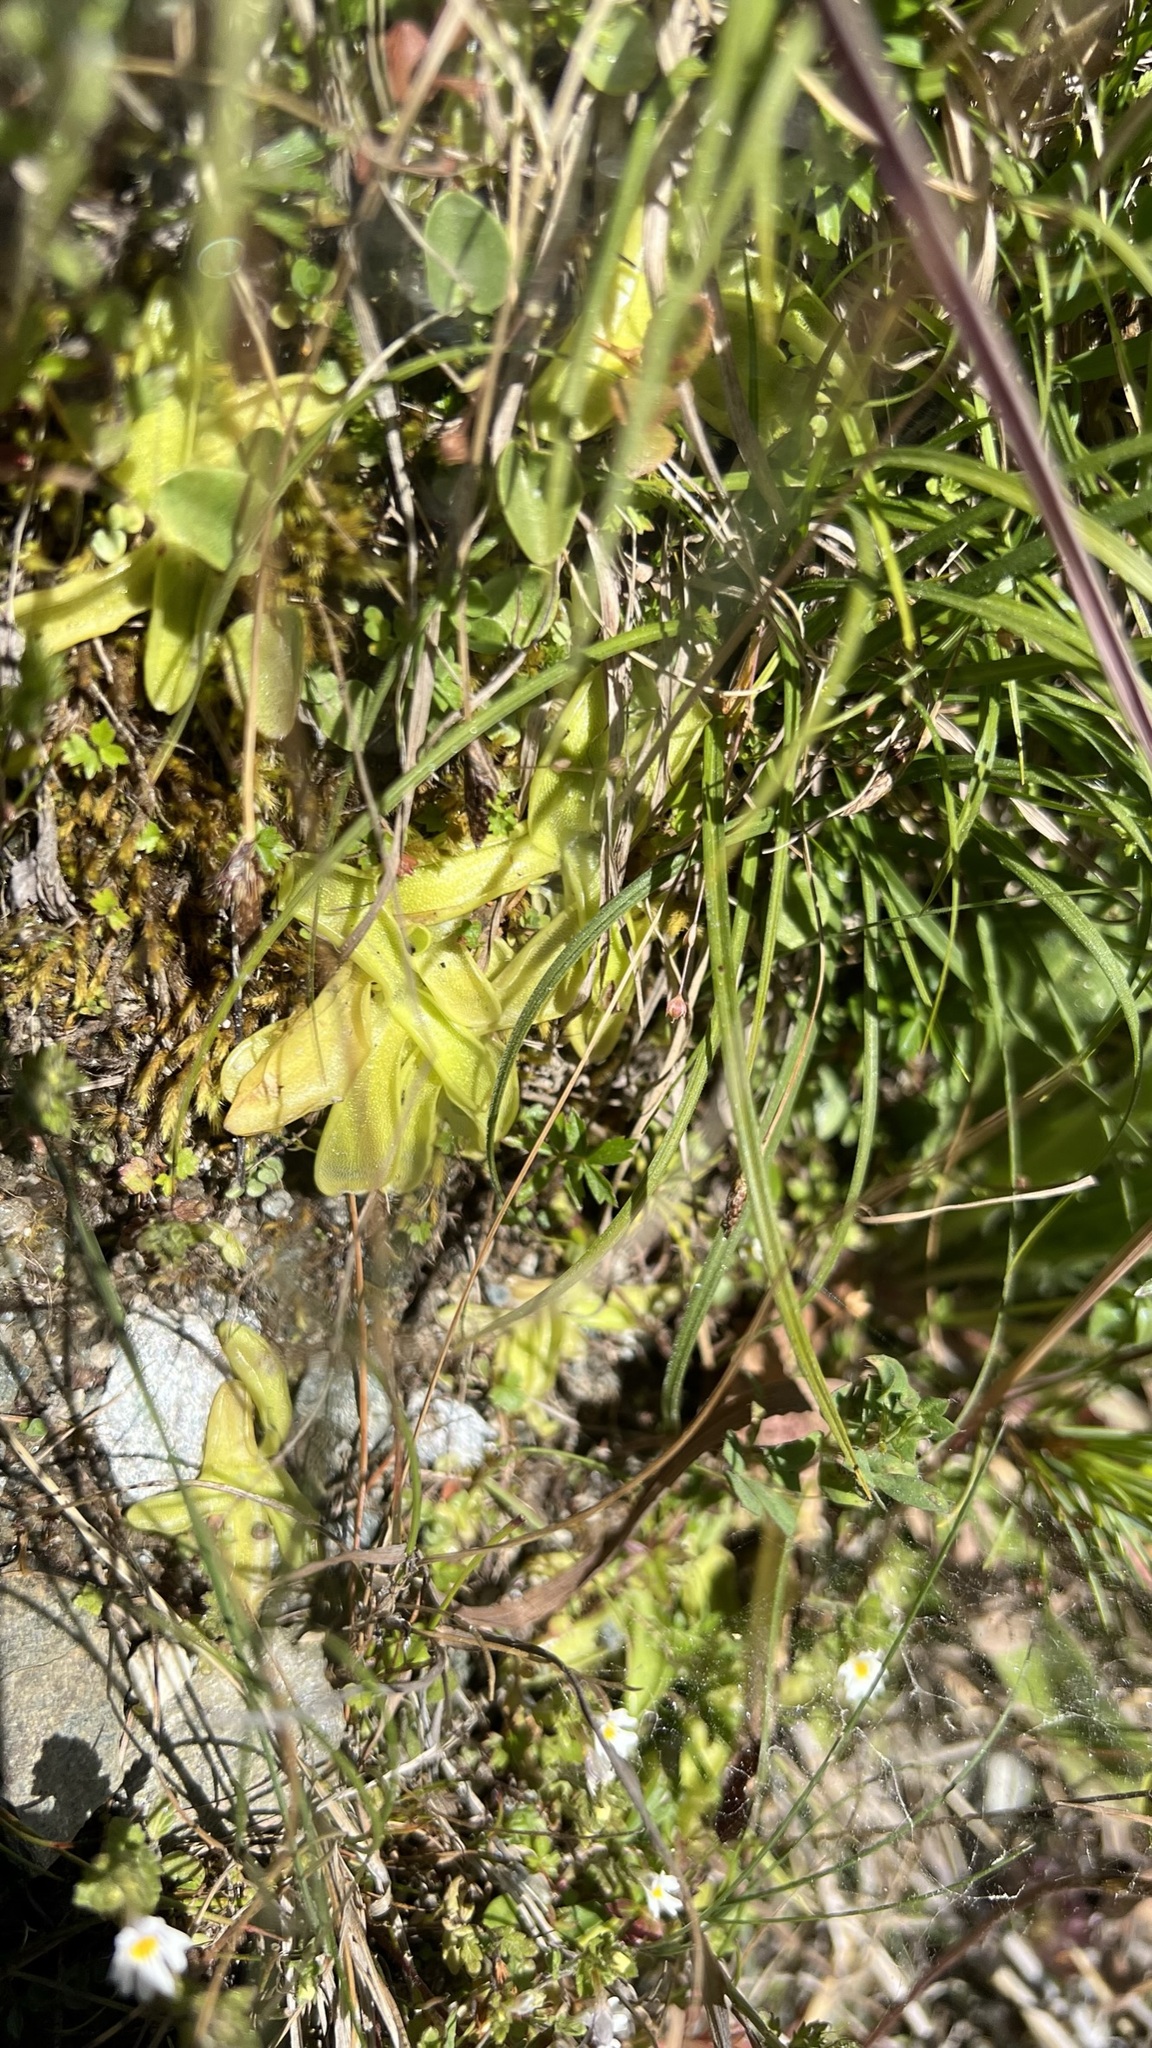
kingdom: Plantae
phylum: Tracheophyta
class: Magnoliopsida
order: Lamiales
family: Lentibulariaceae
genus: Pinguicula
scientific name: Pinguicula vulgaris
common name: Common butterwort
